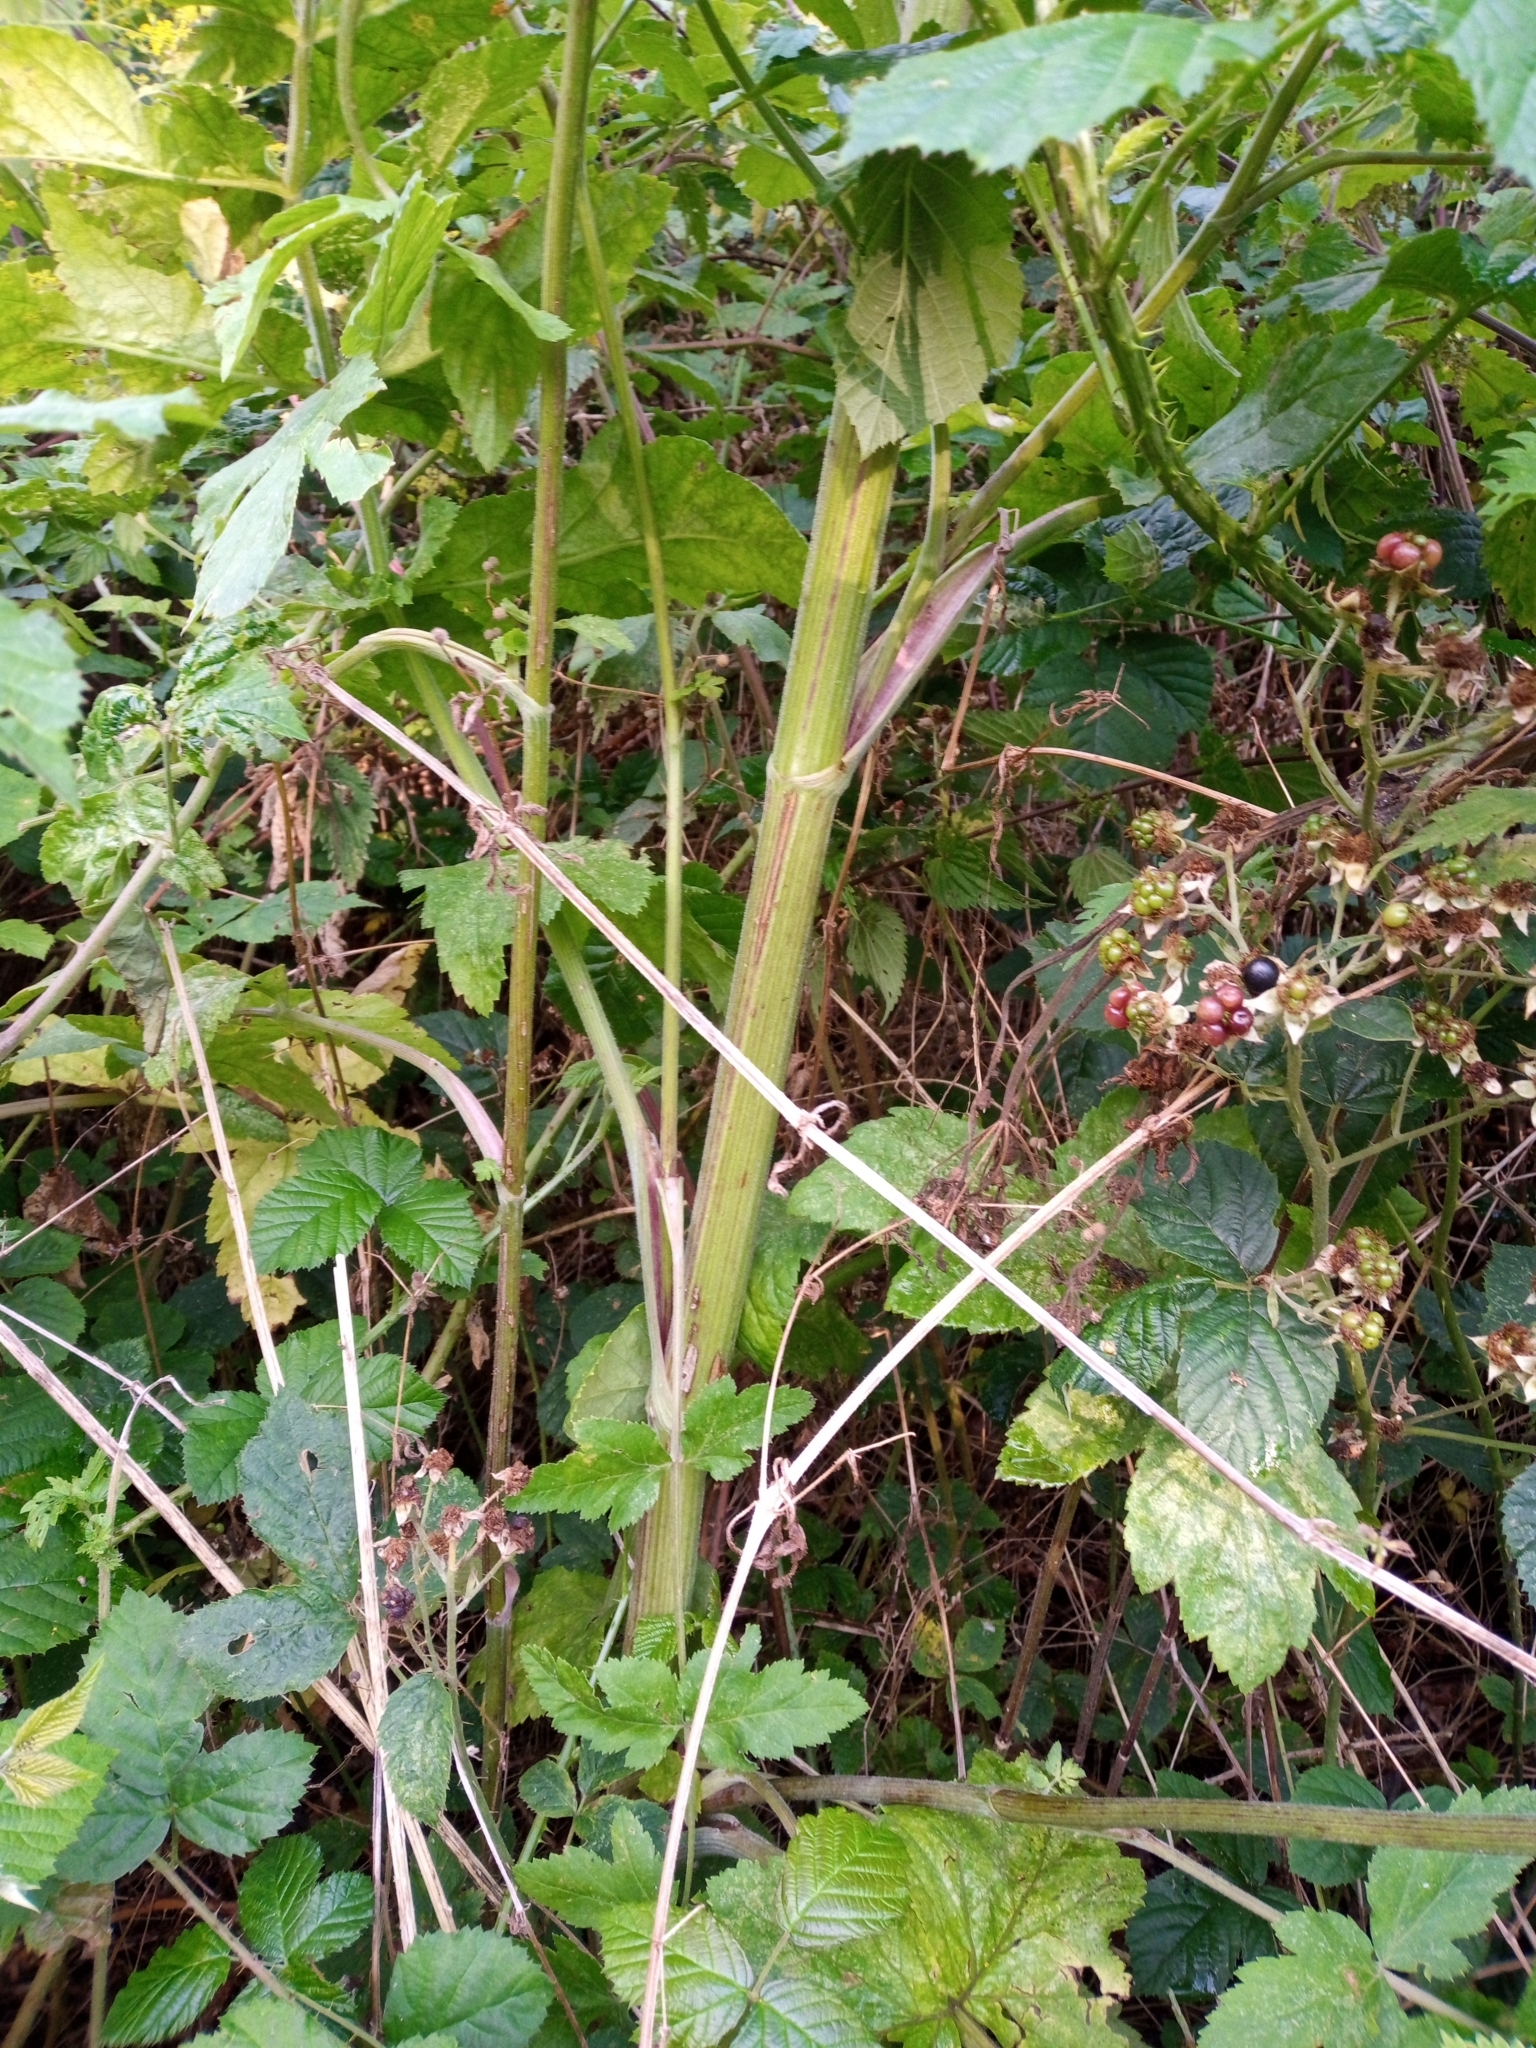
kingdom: Plantae
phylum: Tracheophyta
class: Magnoliopsida
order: Apiales
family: Apiaceae
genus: Pastinaca
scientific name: Pastinaca sativa
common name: Wild parsnip
